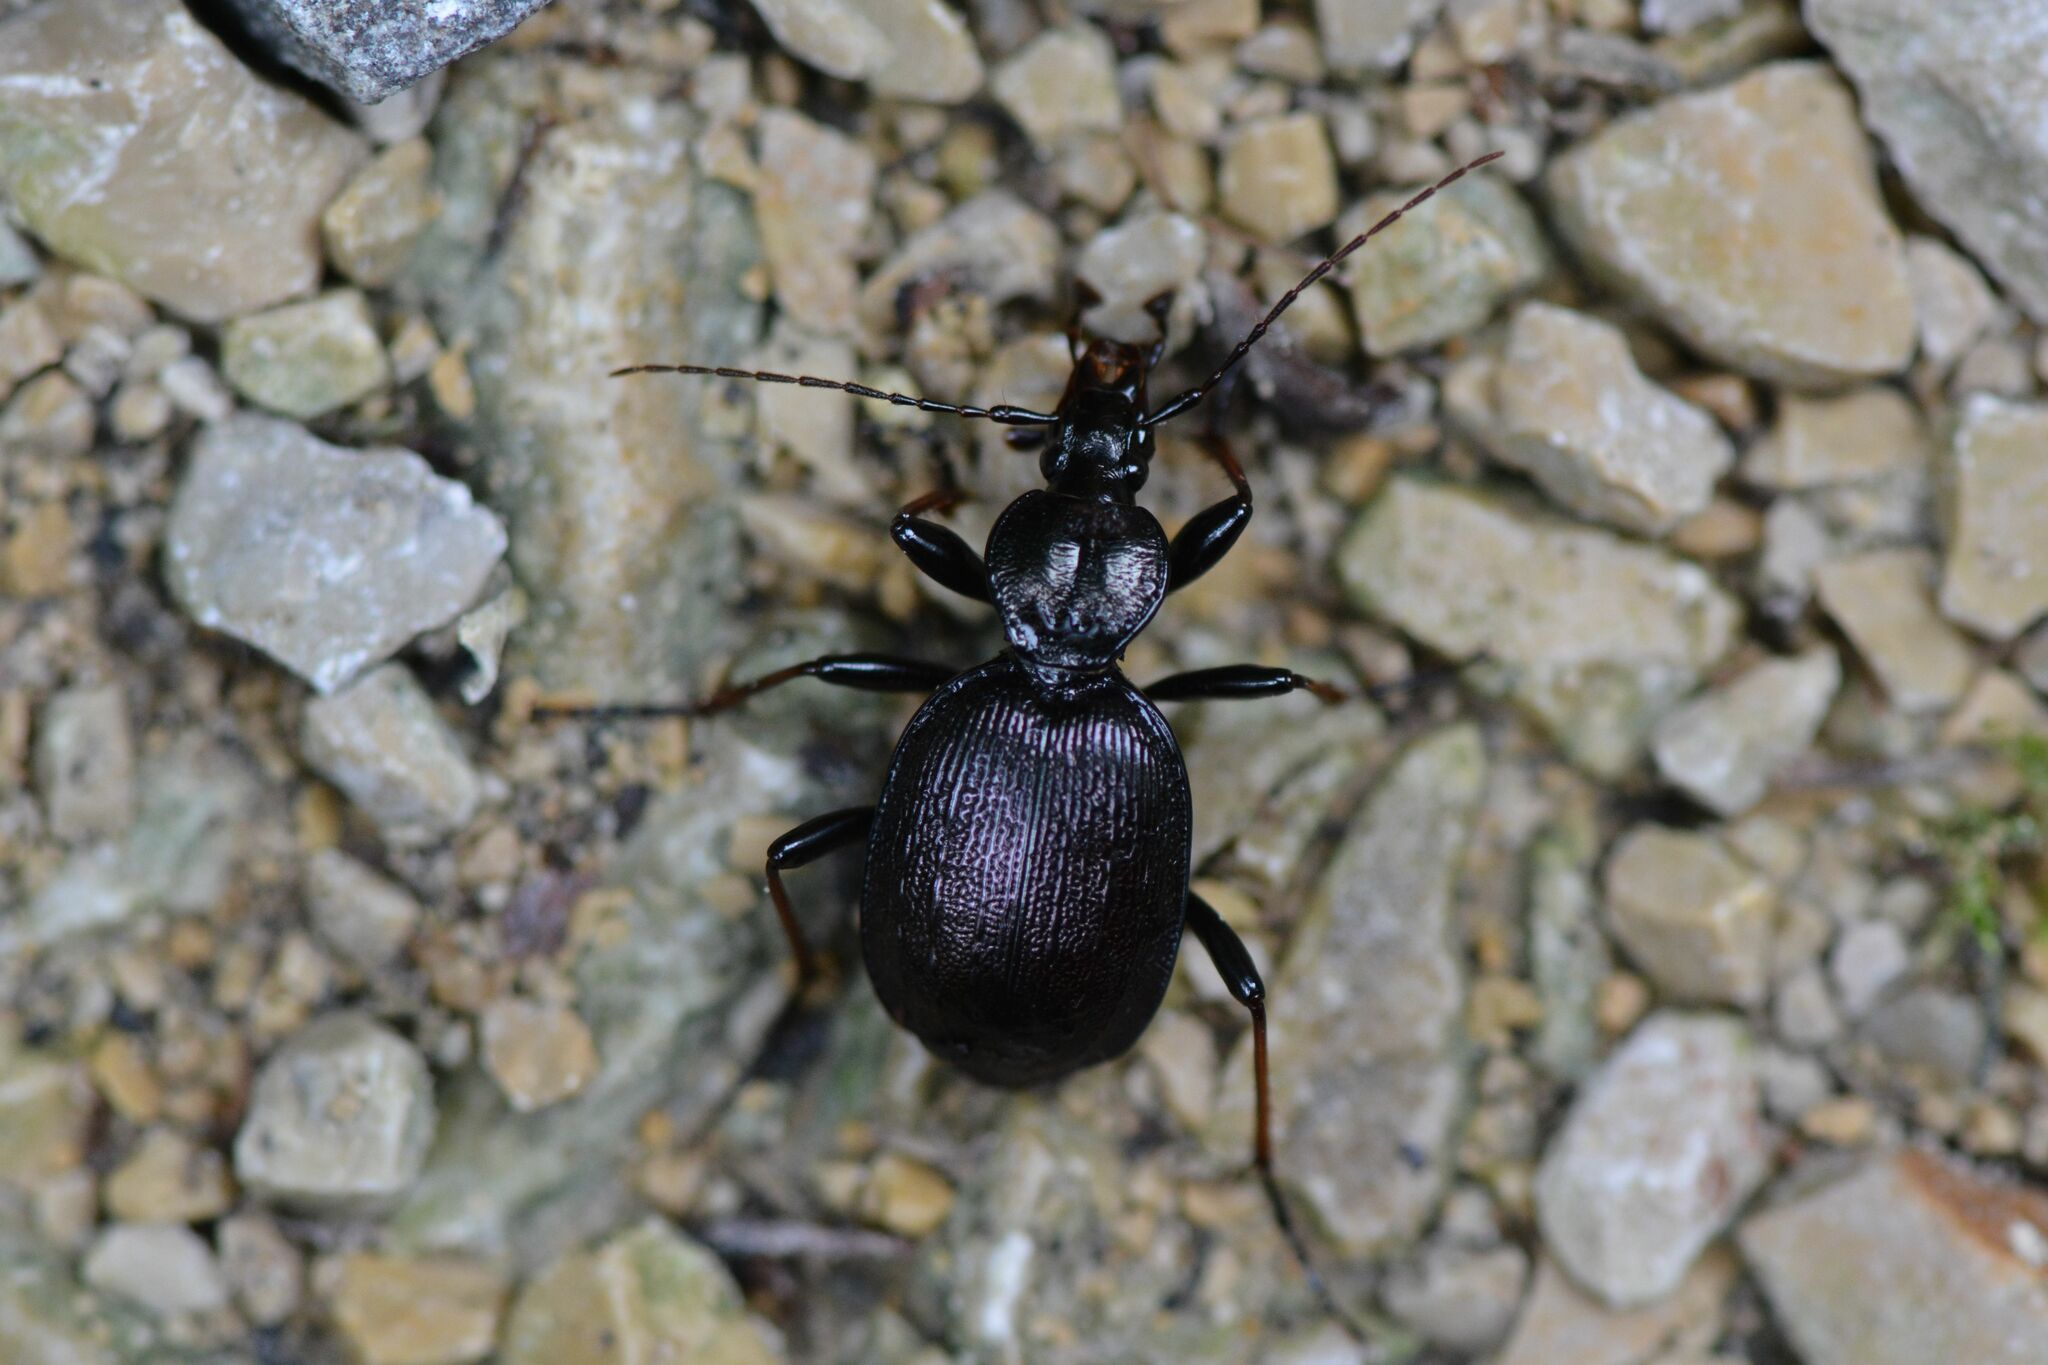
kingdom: Animalia
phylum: Arthropoda
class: Insecta
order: Coleoptera
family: Carabidae
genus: Cychrus
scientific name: Cychrus attenuatus
